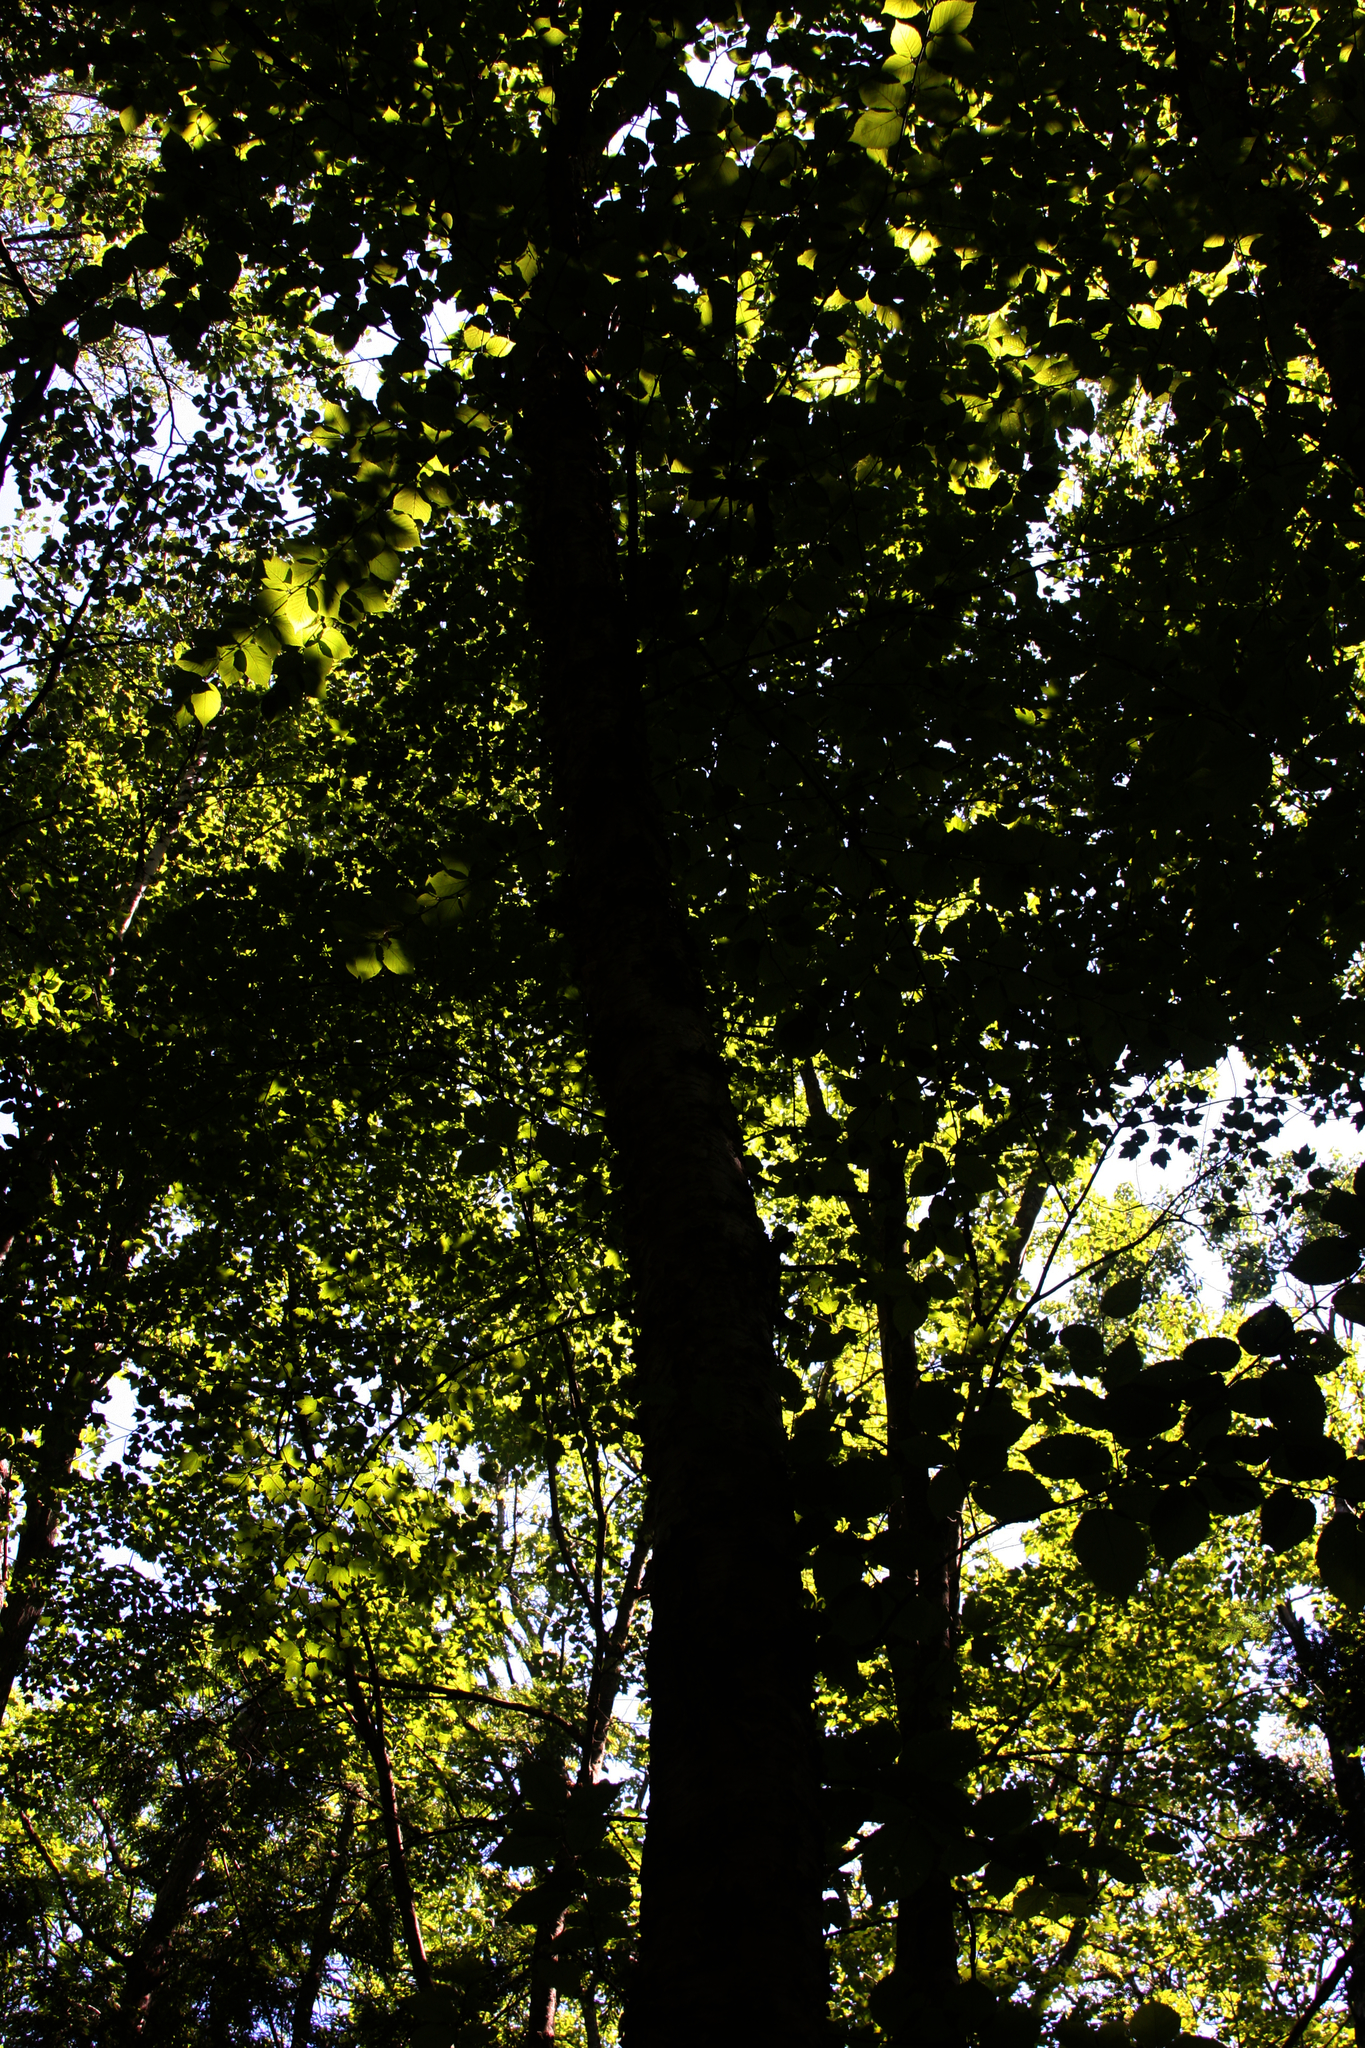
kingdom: Plantae
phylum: Tracheophyta
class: Magnoliopsida
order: Fagales
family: Betulaceae
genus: Betula
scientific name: Betula alleghaniensis
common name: Yellow birch
